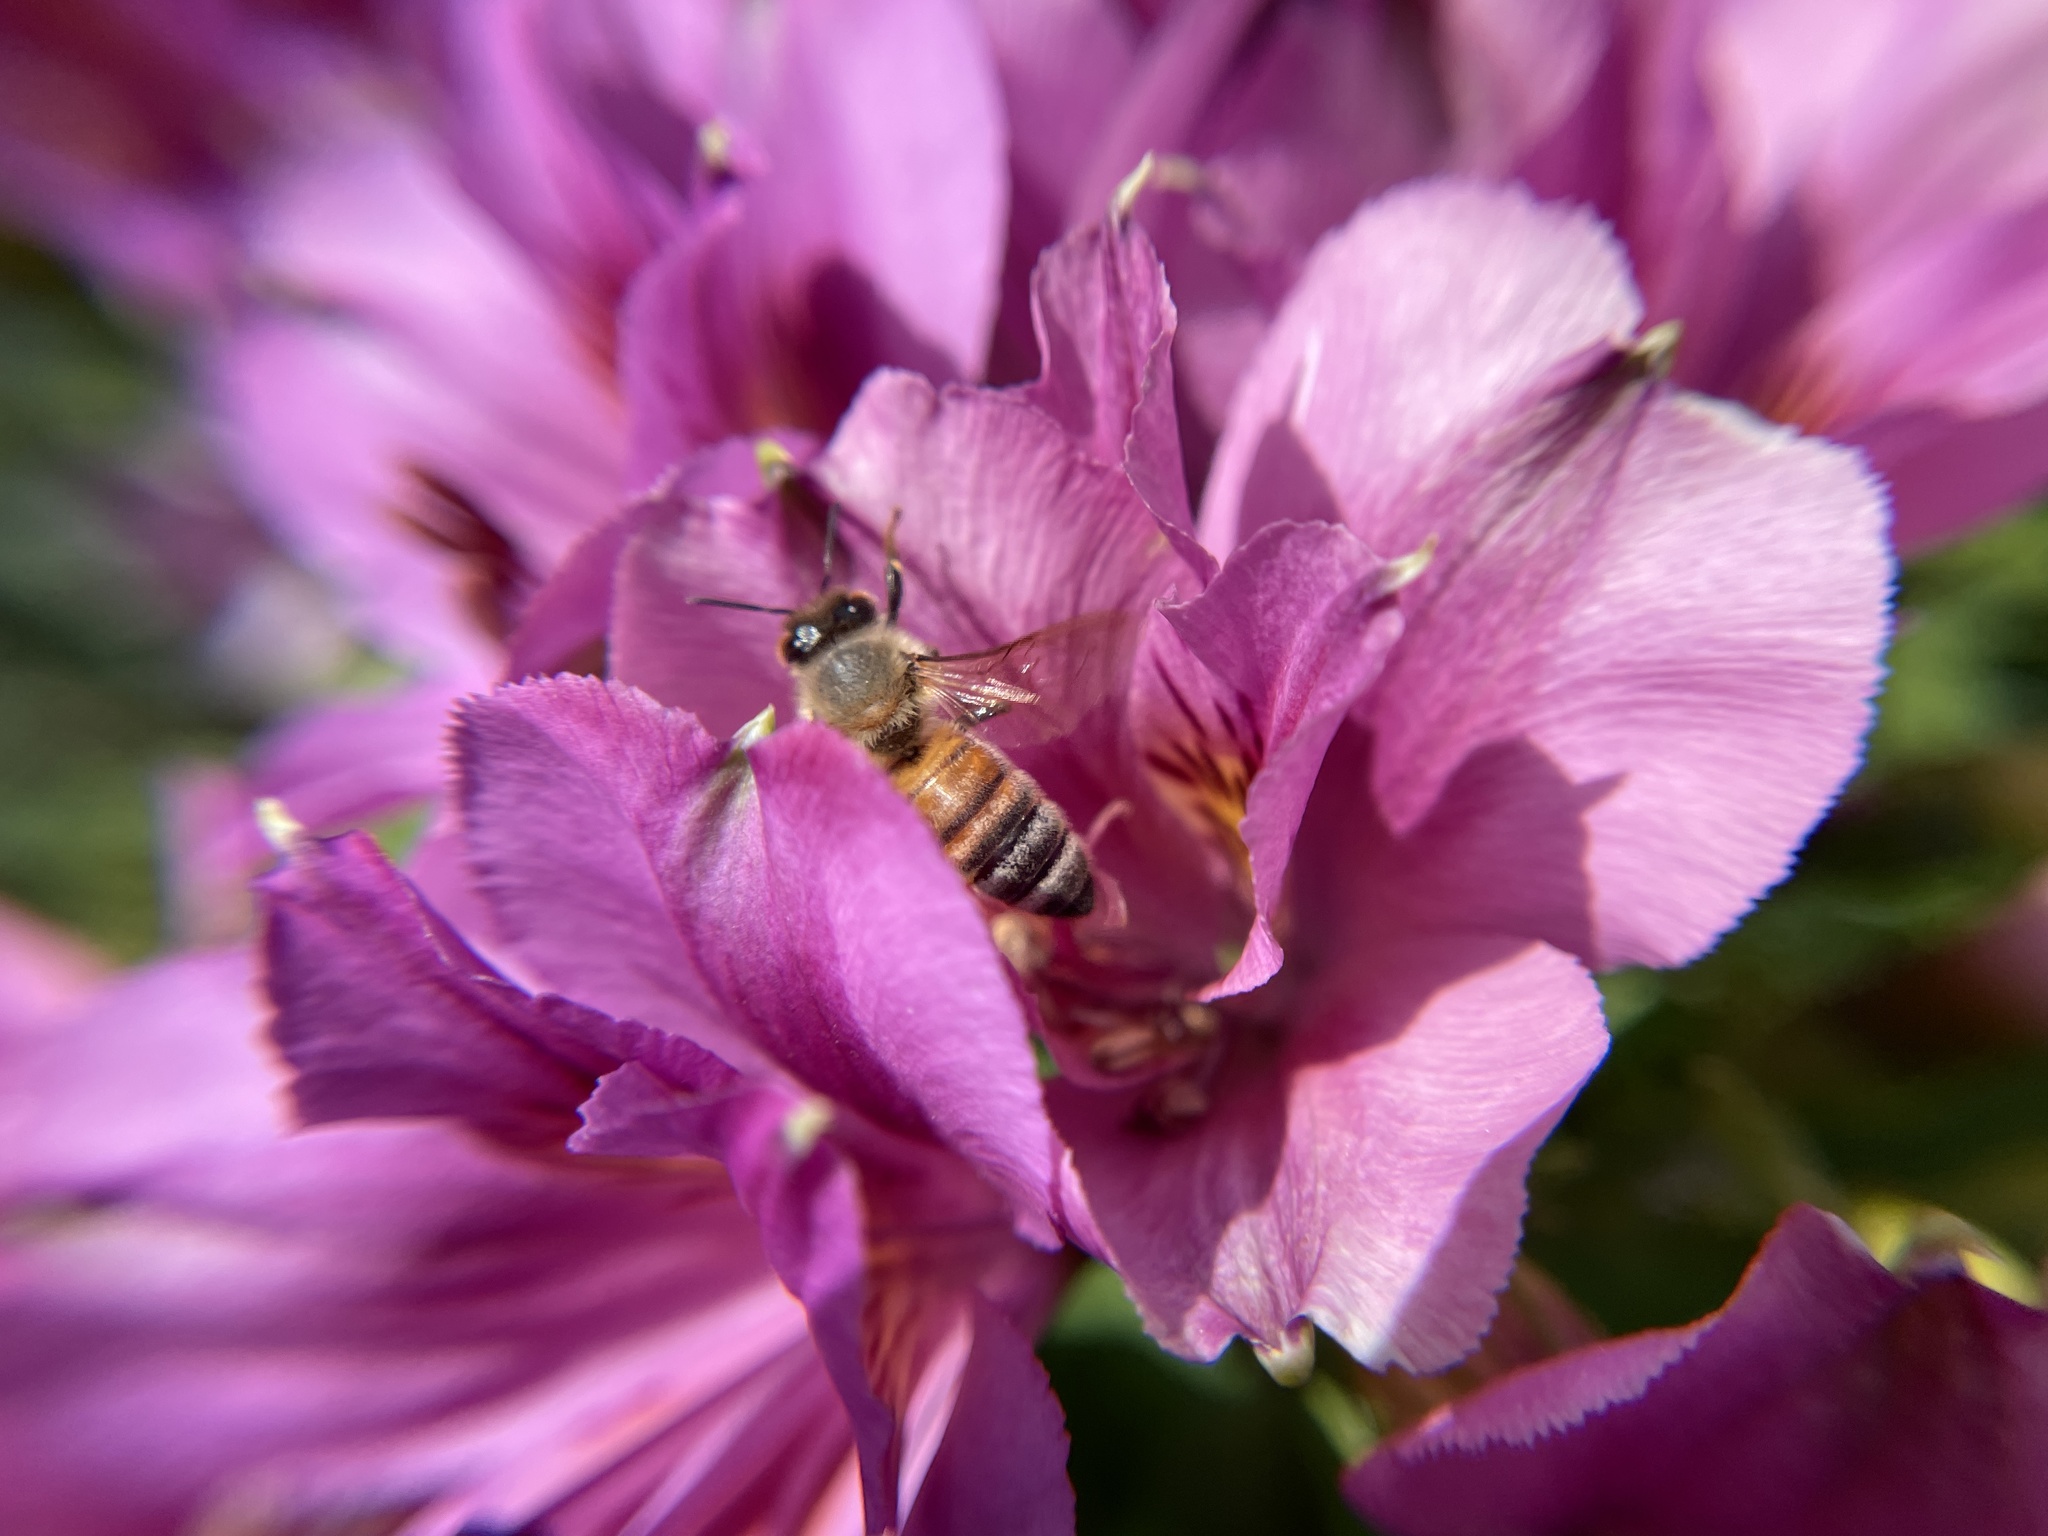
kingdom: Animalia
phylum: Arthropoda
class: Insecta
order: Hymenoptera
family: Apidae
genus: Apis
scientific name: Apis mellifera
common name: Honey bee
